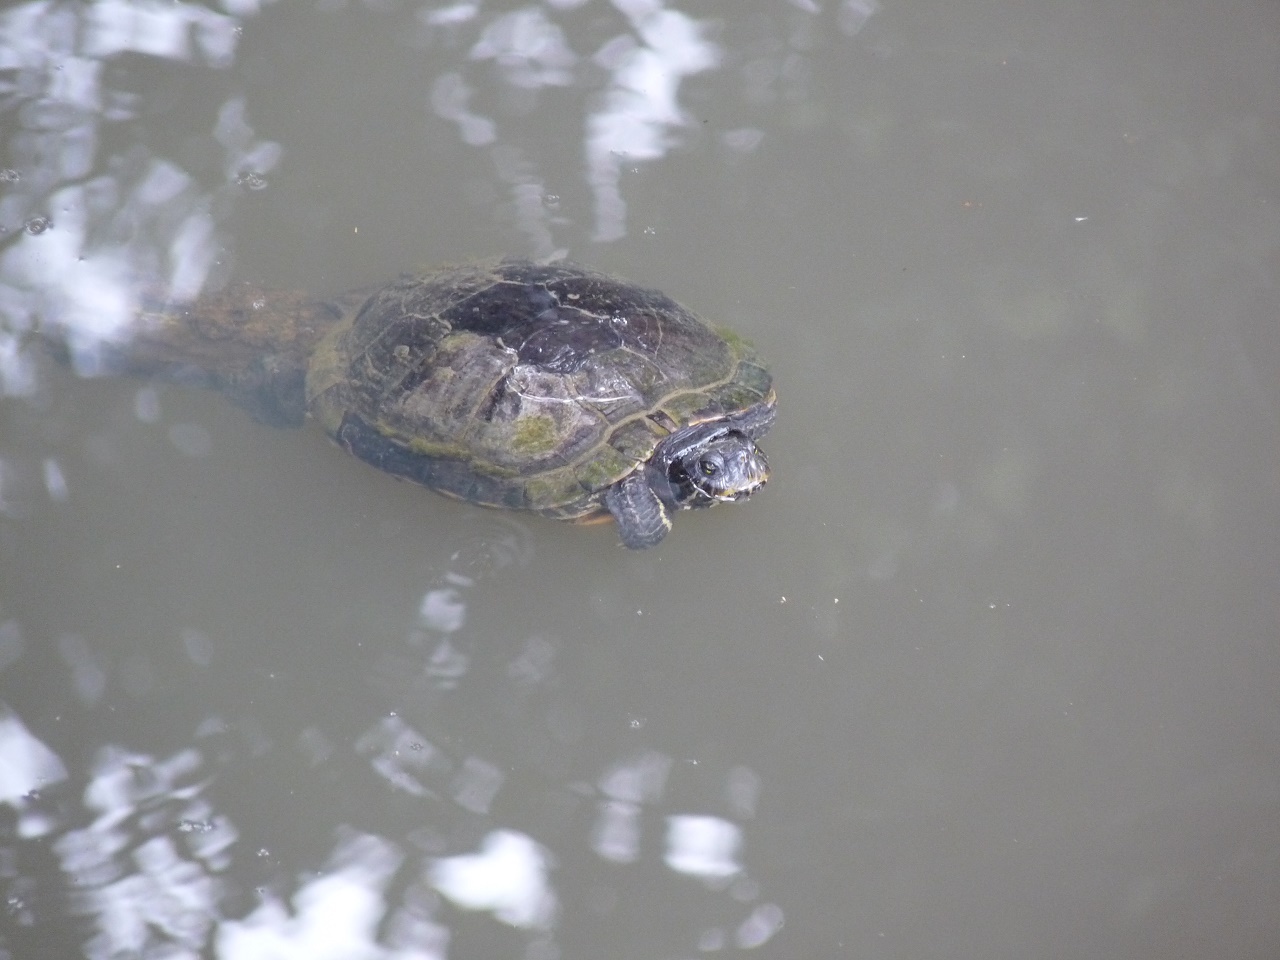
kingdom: Animalia
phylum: Chordata
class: Testudines
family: Emydidae
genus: Trachemys
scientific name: Trachemys scripta
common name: Slider
